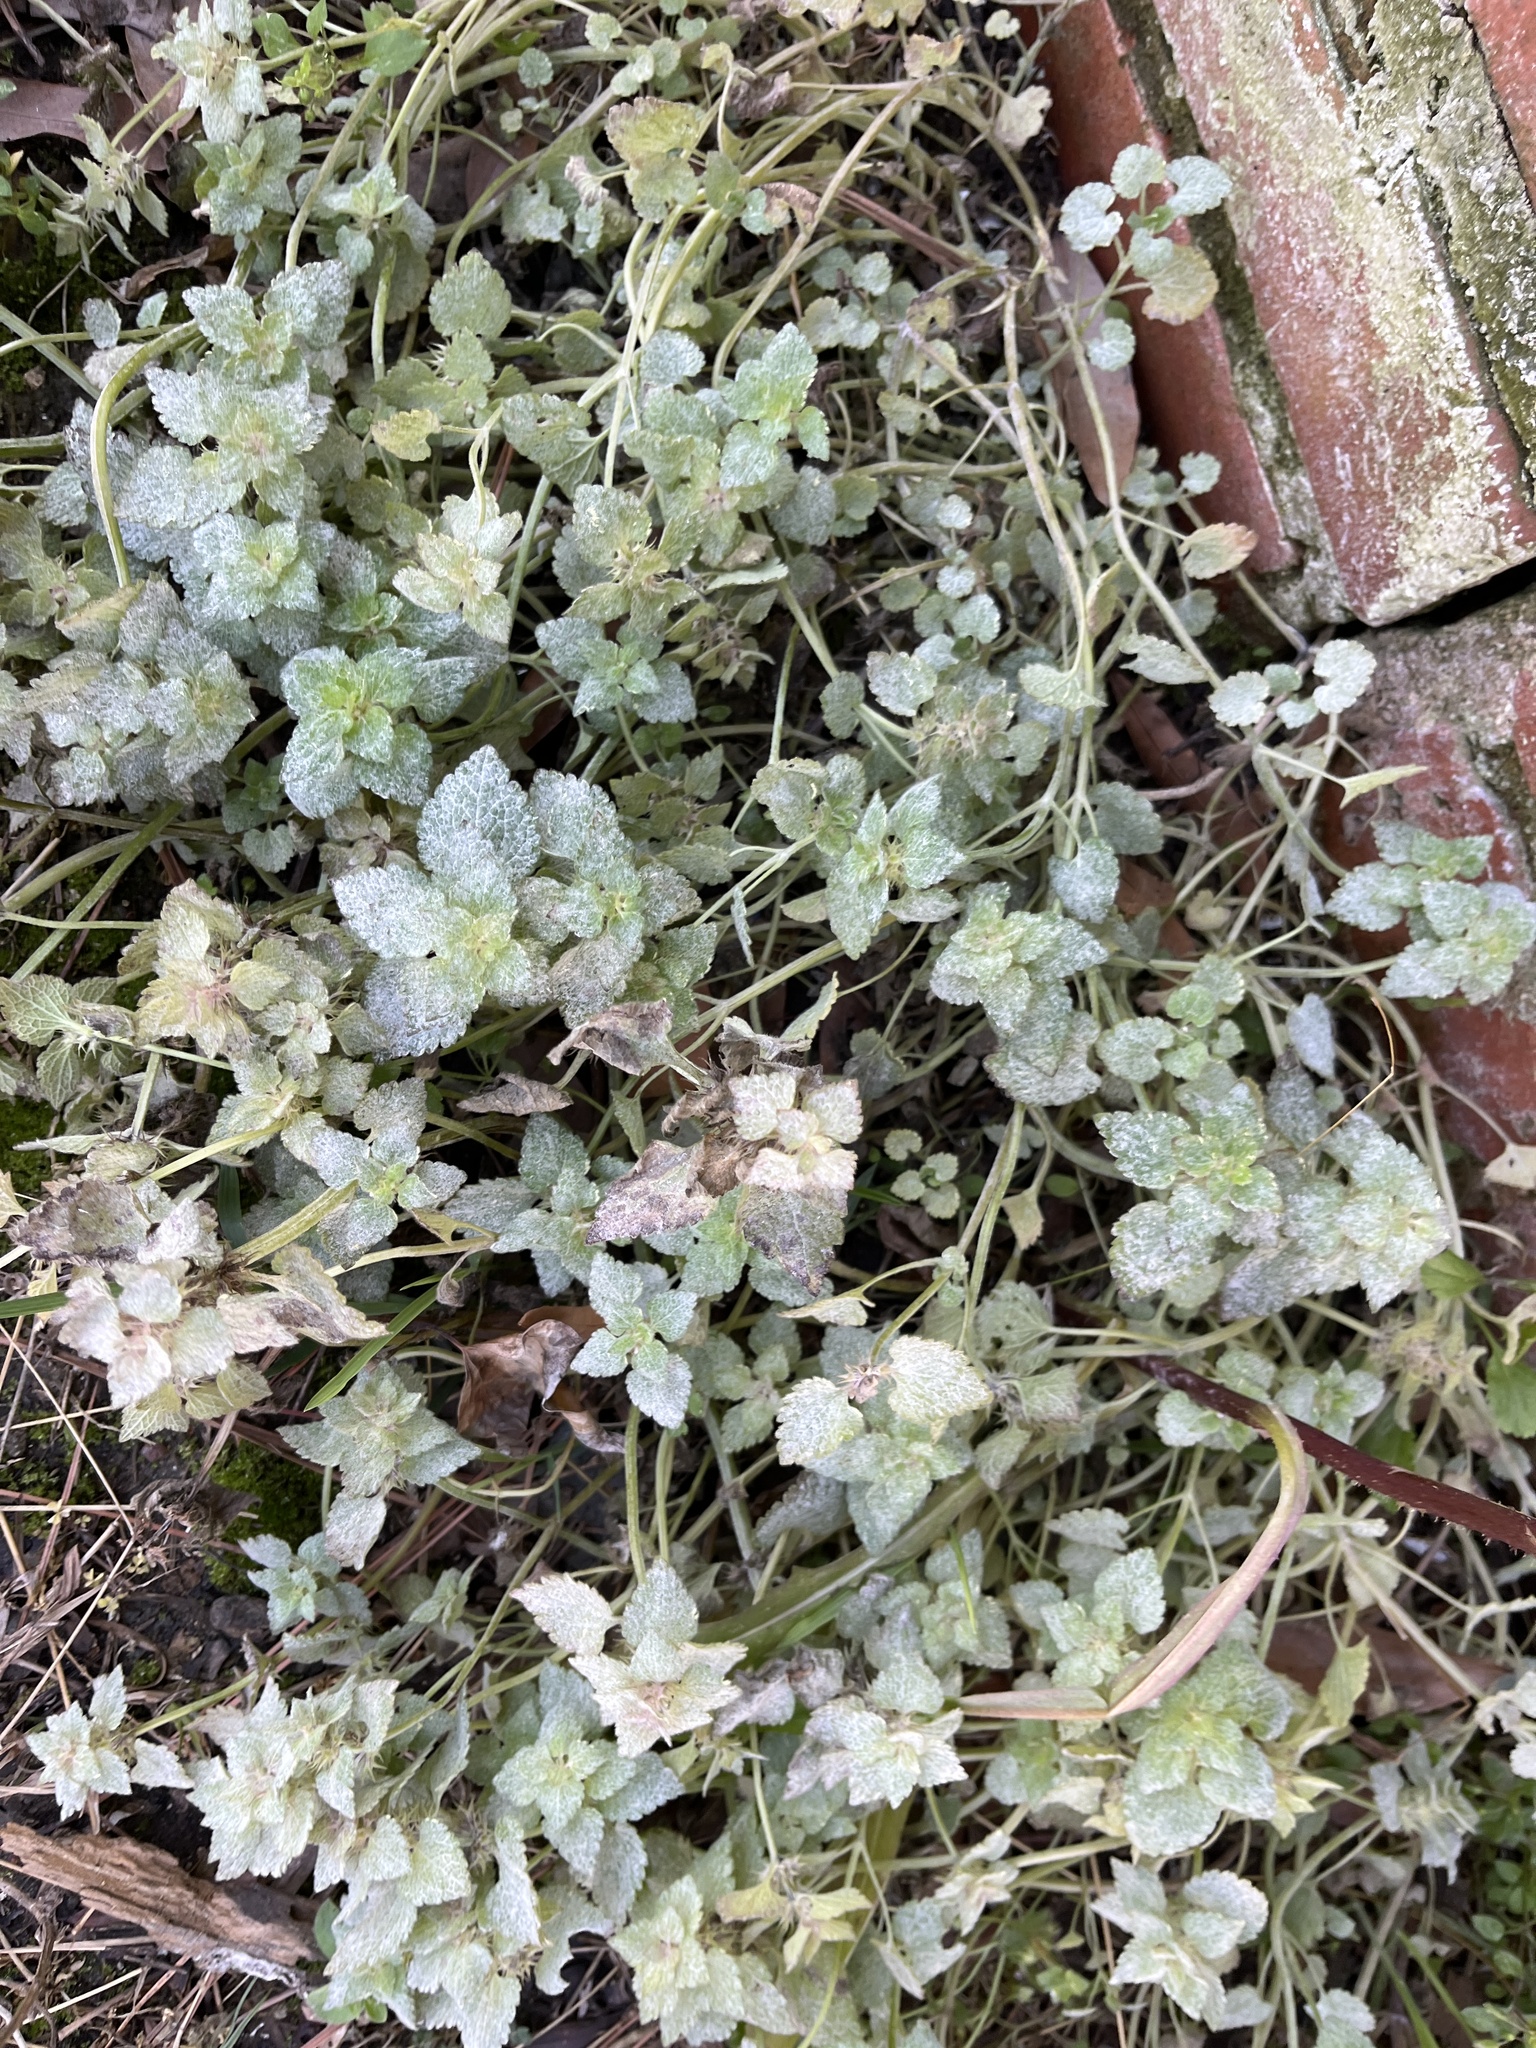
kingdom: Plantae
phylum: Tracheophyta
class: Magnoliopsida
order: Lamiales
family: Lamiaceae
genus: Lamium
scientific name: Lamium purpureum
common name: Red dead-nettle
